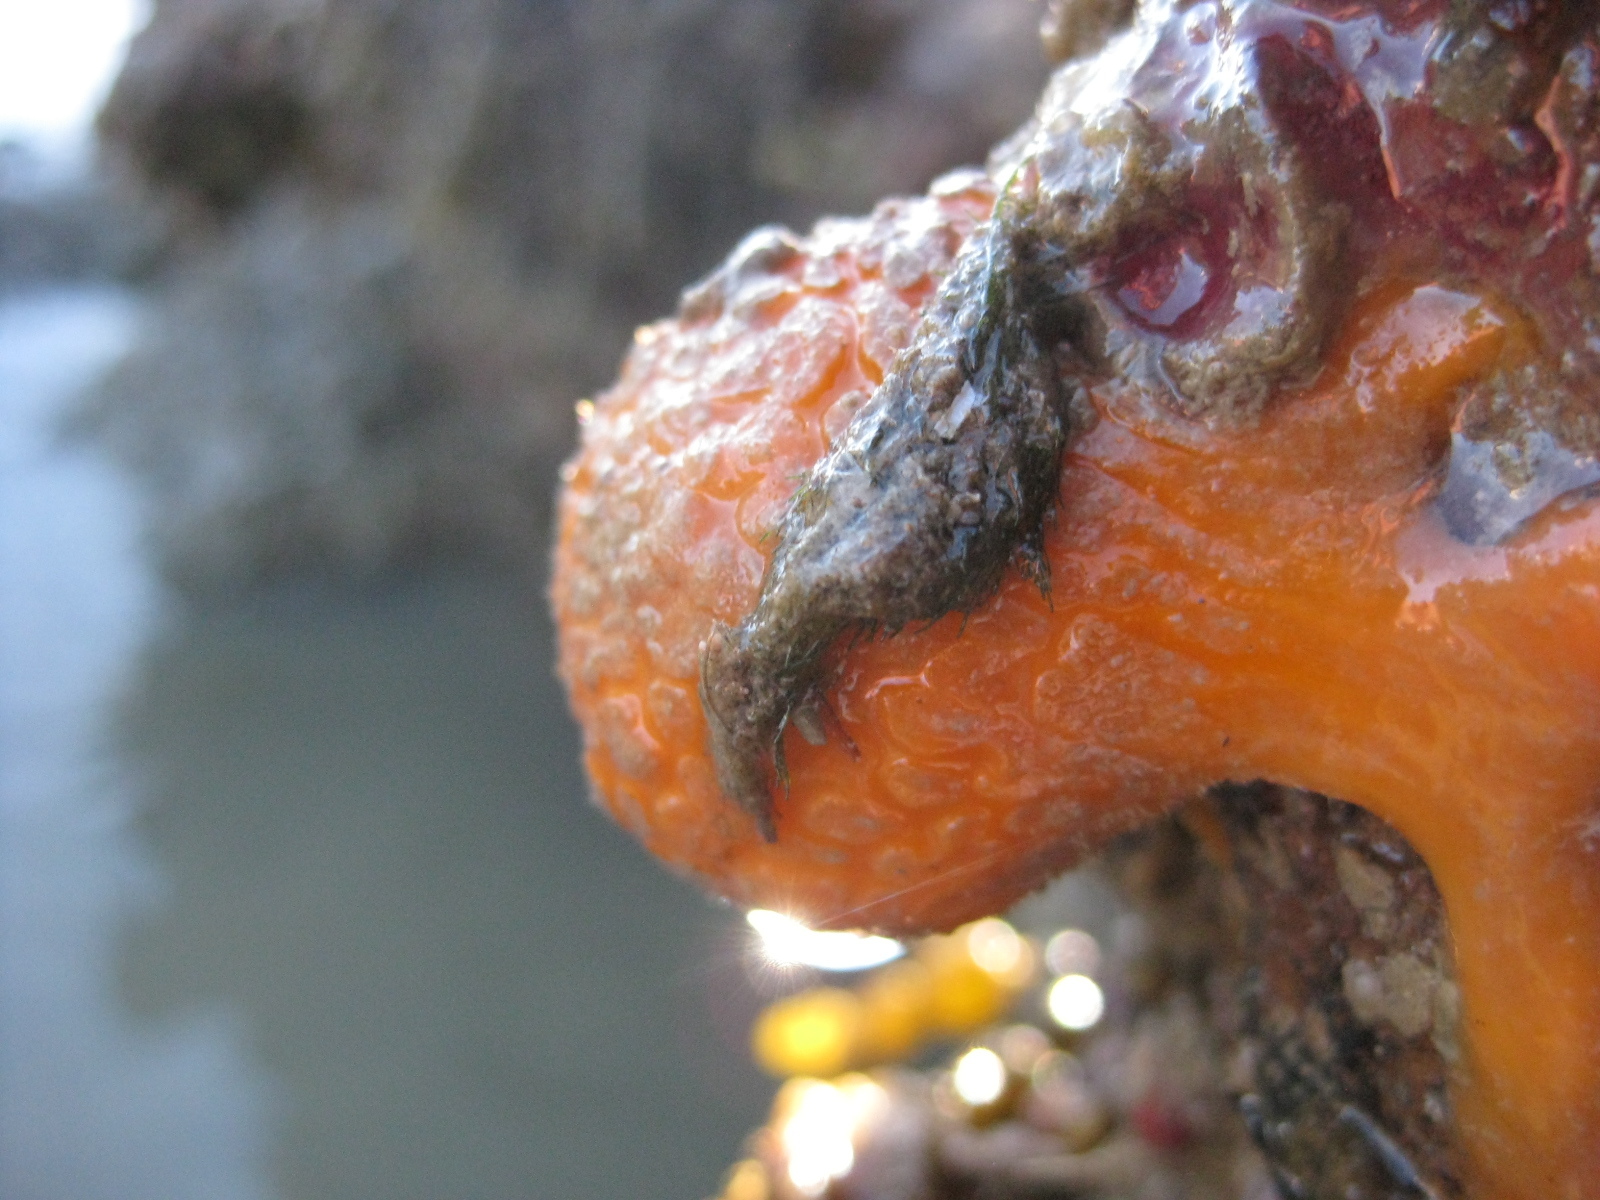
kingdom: Animalia
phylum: Porifera
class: Demospongiae
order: Tethyida
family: Tethyidae
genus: Tethya
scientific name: Tethya burtoni
